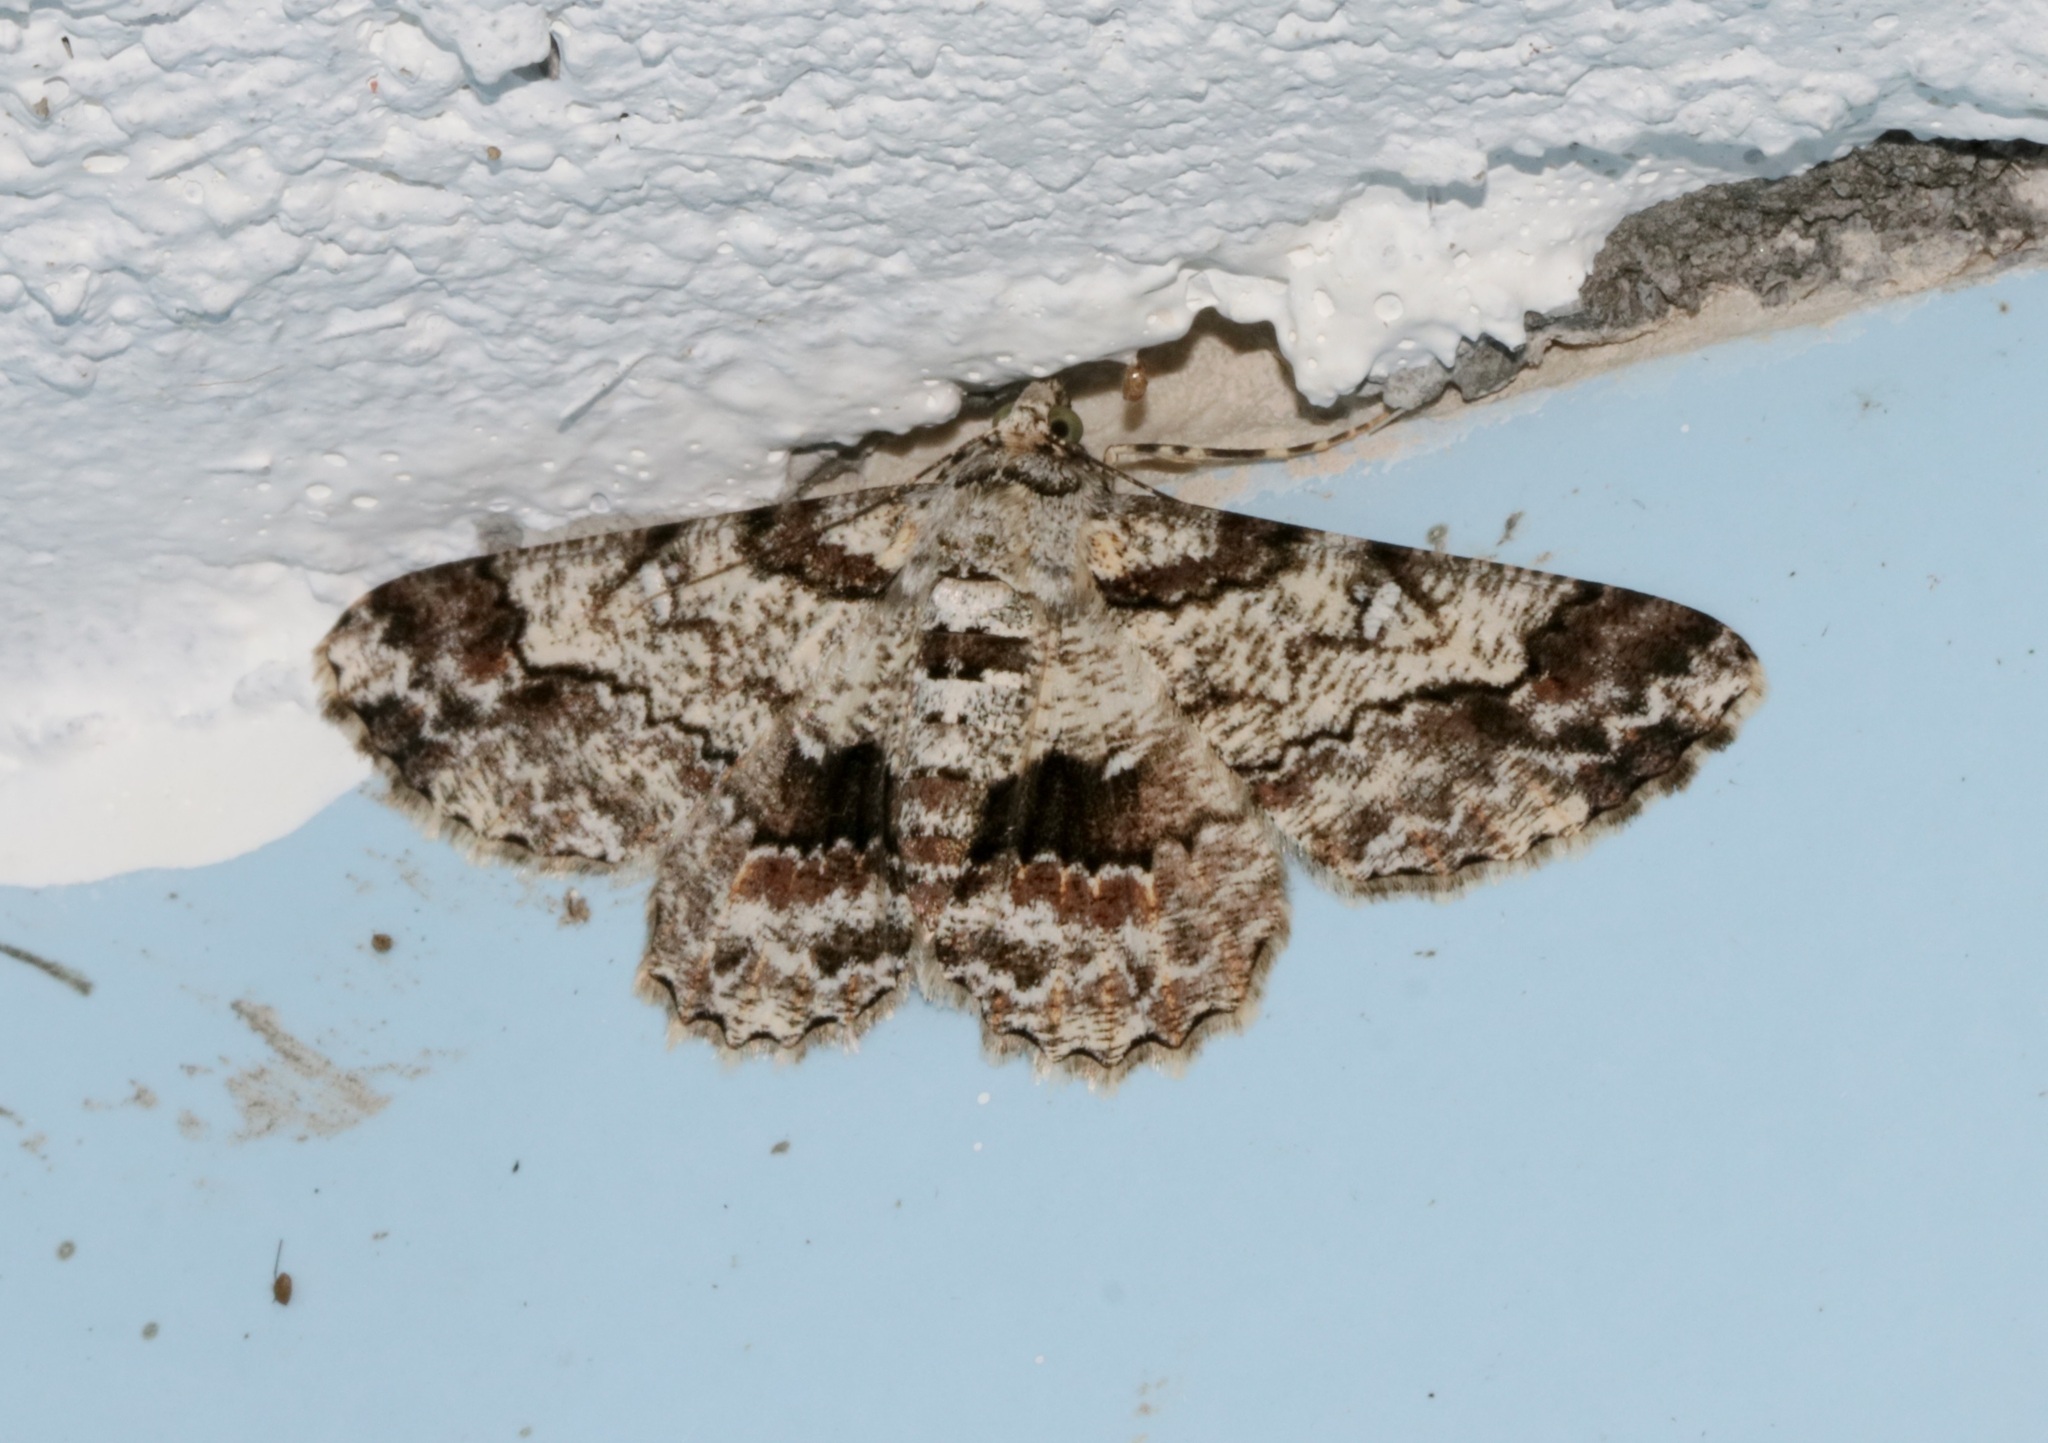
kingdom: Animalia
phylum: Arthropoda
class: Insecta
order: Lepidoptera
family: Geometridae
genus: Cleora
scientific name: Cleora alienaria
